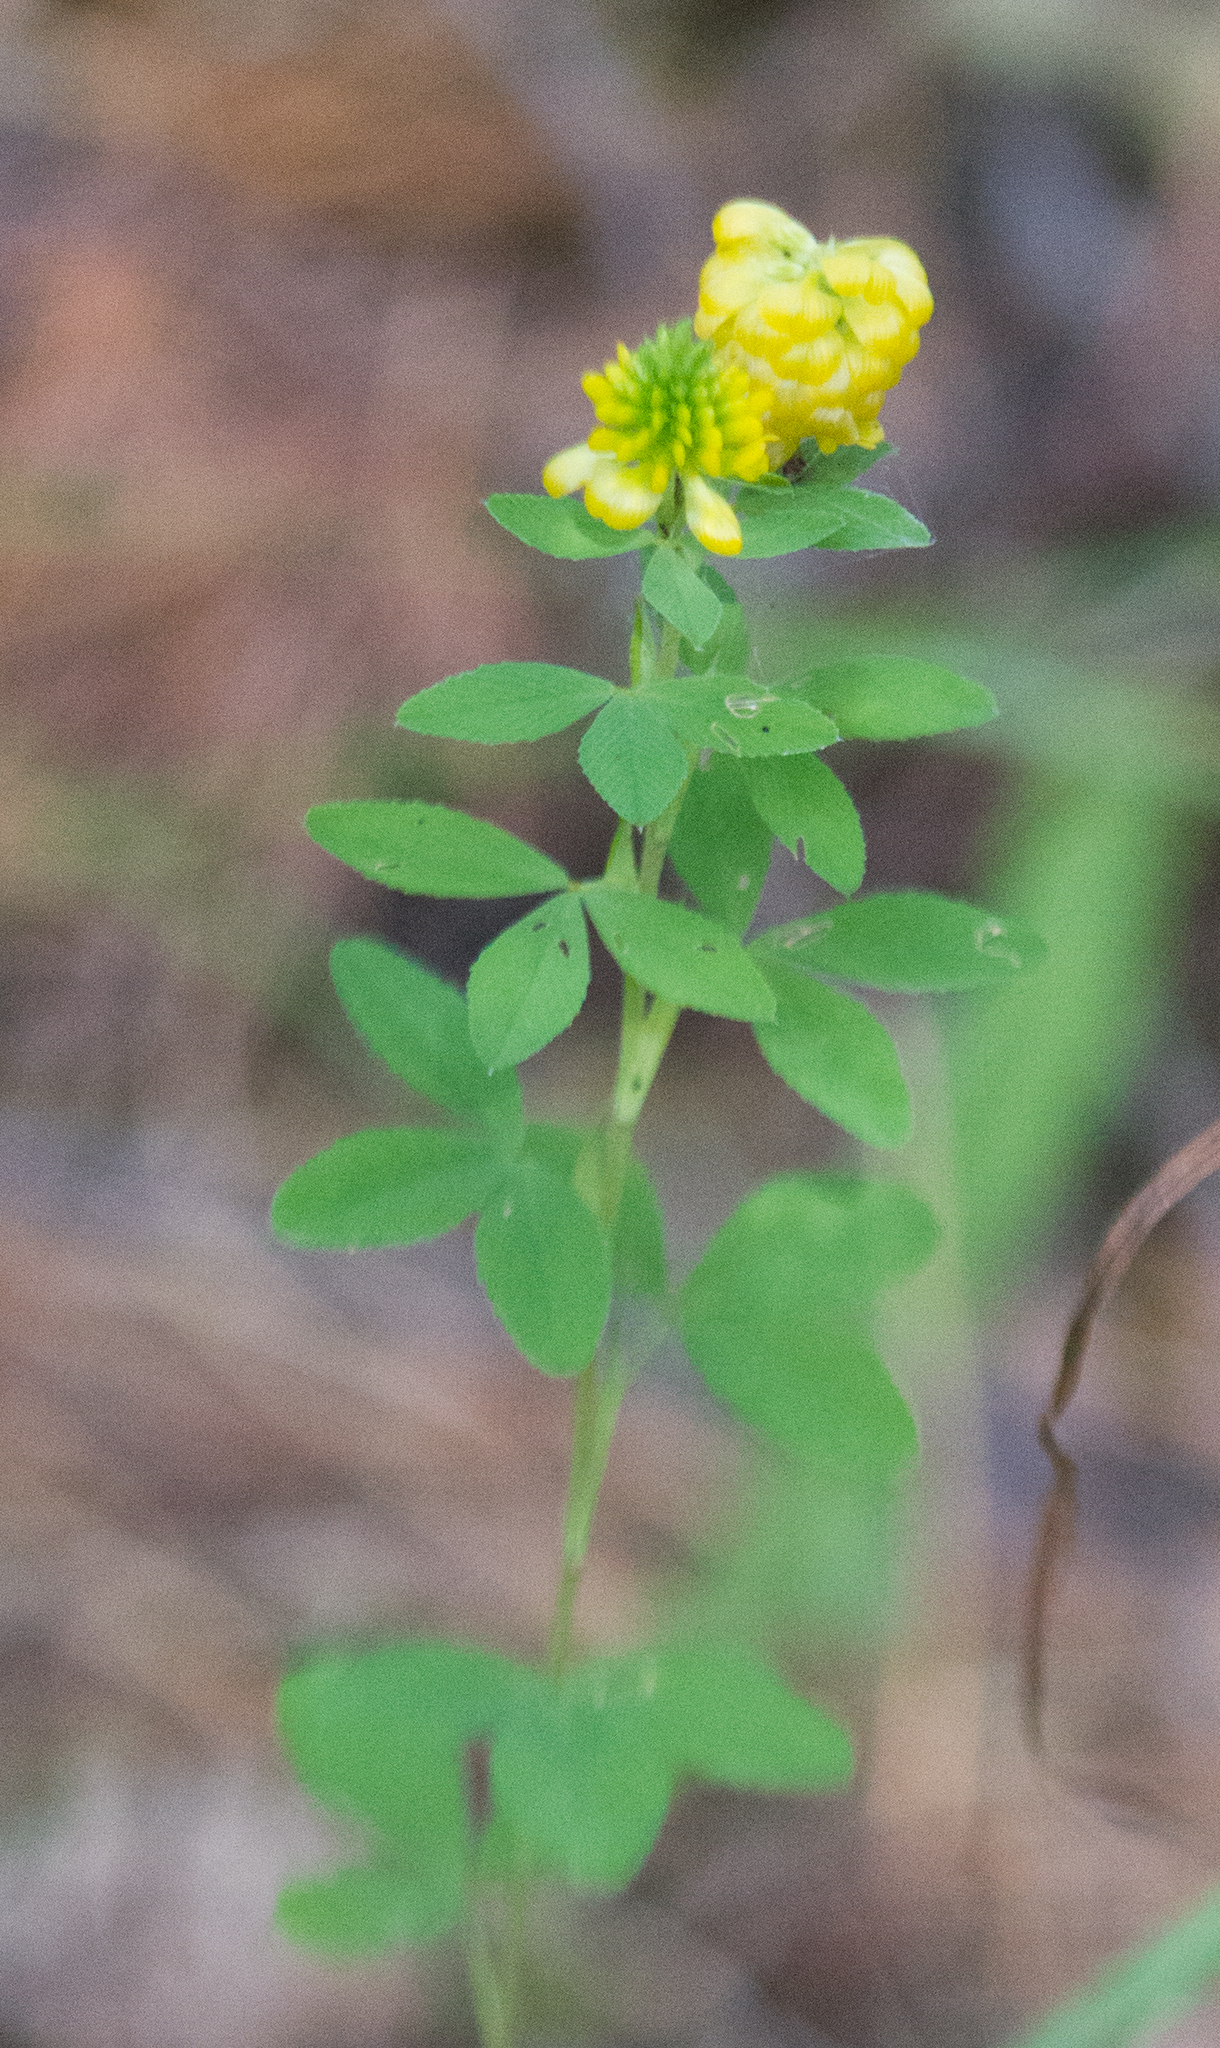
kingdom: Plantae
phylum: Tracheophyta
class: Magnoliopsida
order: Fabales
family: Fabaceae
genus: Trifolium
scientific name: Trifolium aureum
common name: Golden clover
